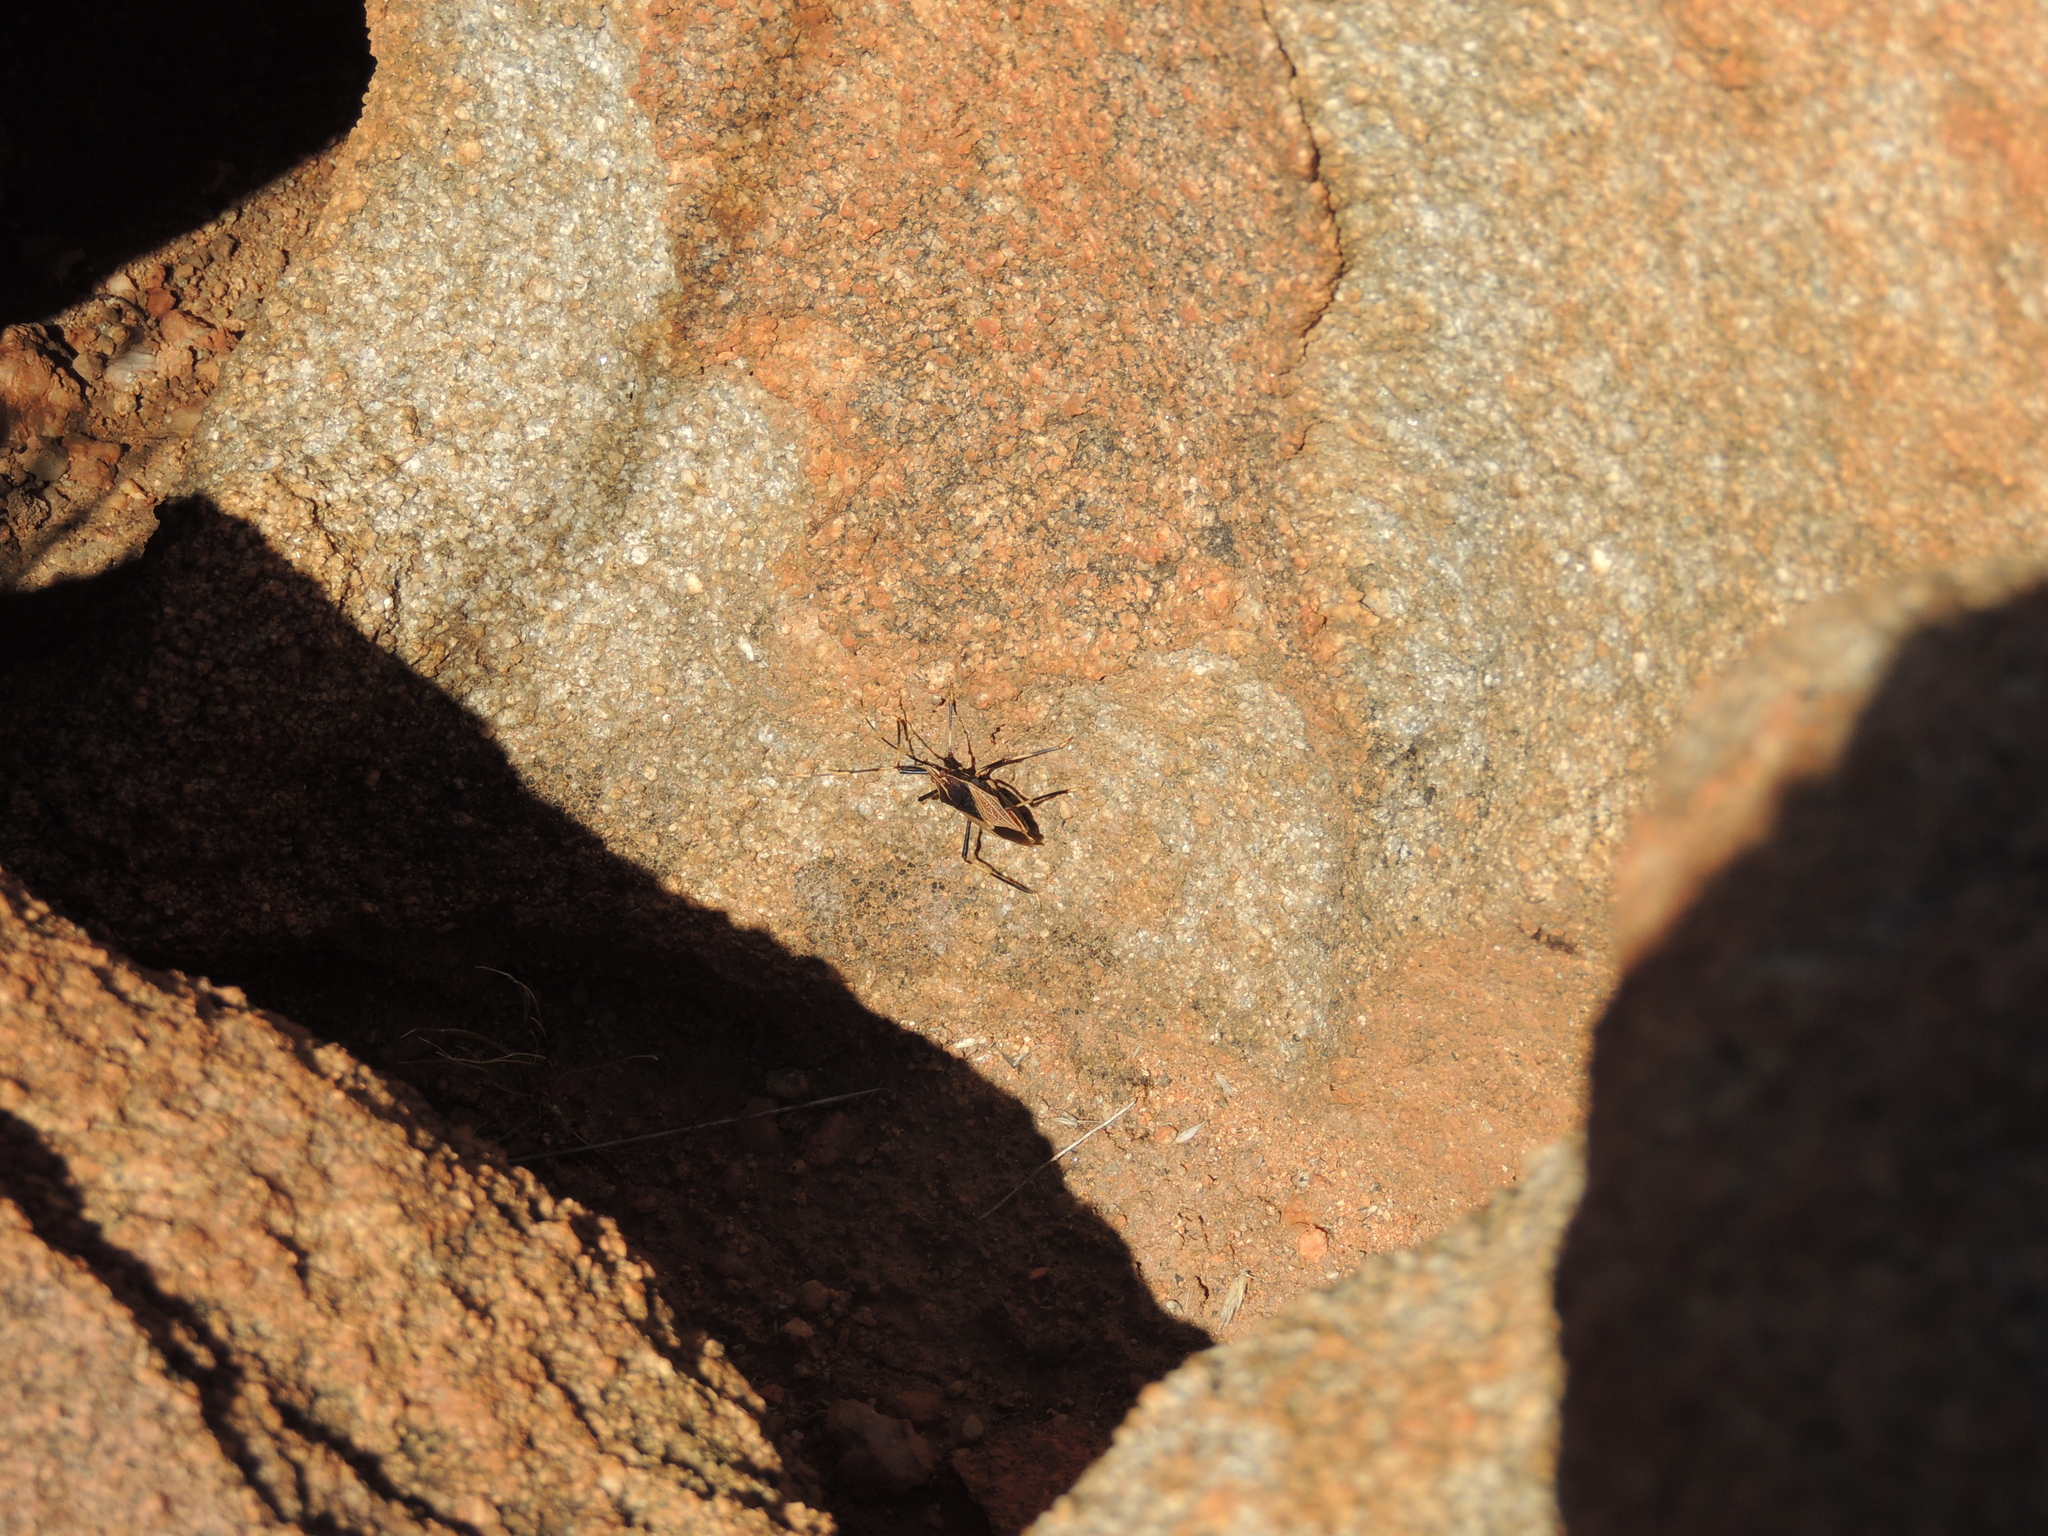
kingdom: Animalia
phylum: Arthropoda
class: Insecta
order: Hemiptera
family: Pentatomidae
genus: Poecilometis
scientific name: Poecilometis
